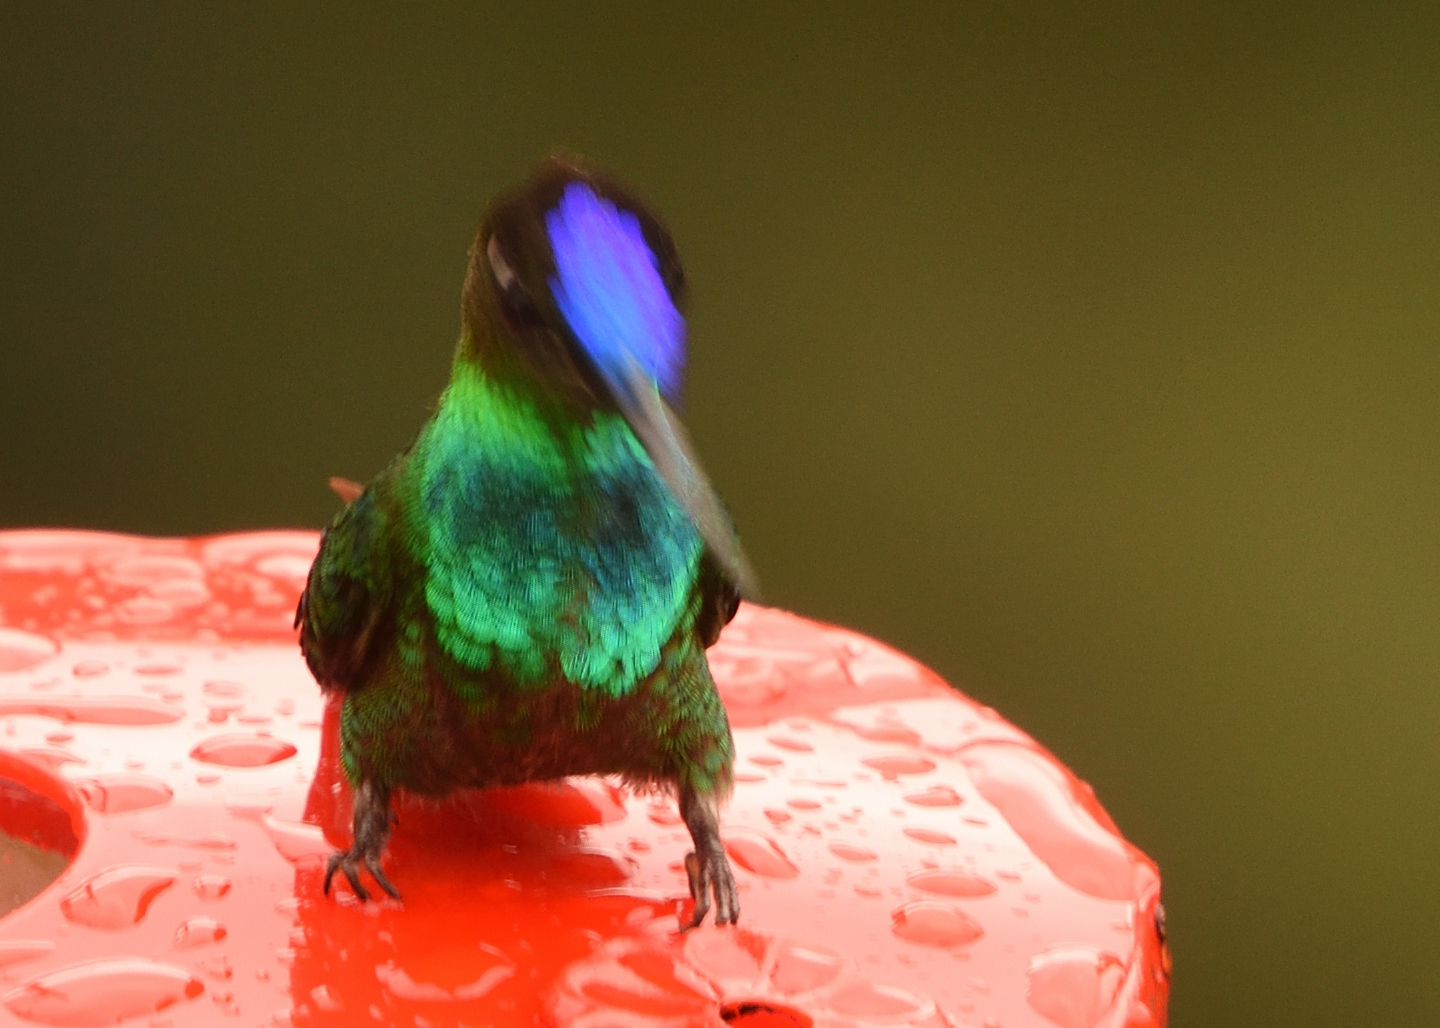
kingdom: Animalia
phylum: Chordata
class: Aves
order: Apodiformes
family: Trochilidae
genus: Heliodoxa
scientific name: Heliodoxa leadbeateri
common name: Violet-fronted brilliant
